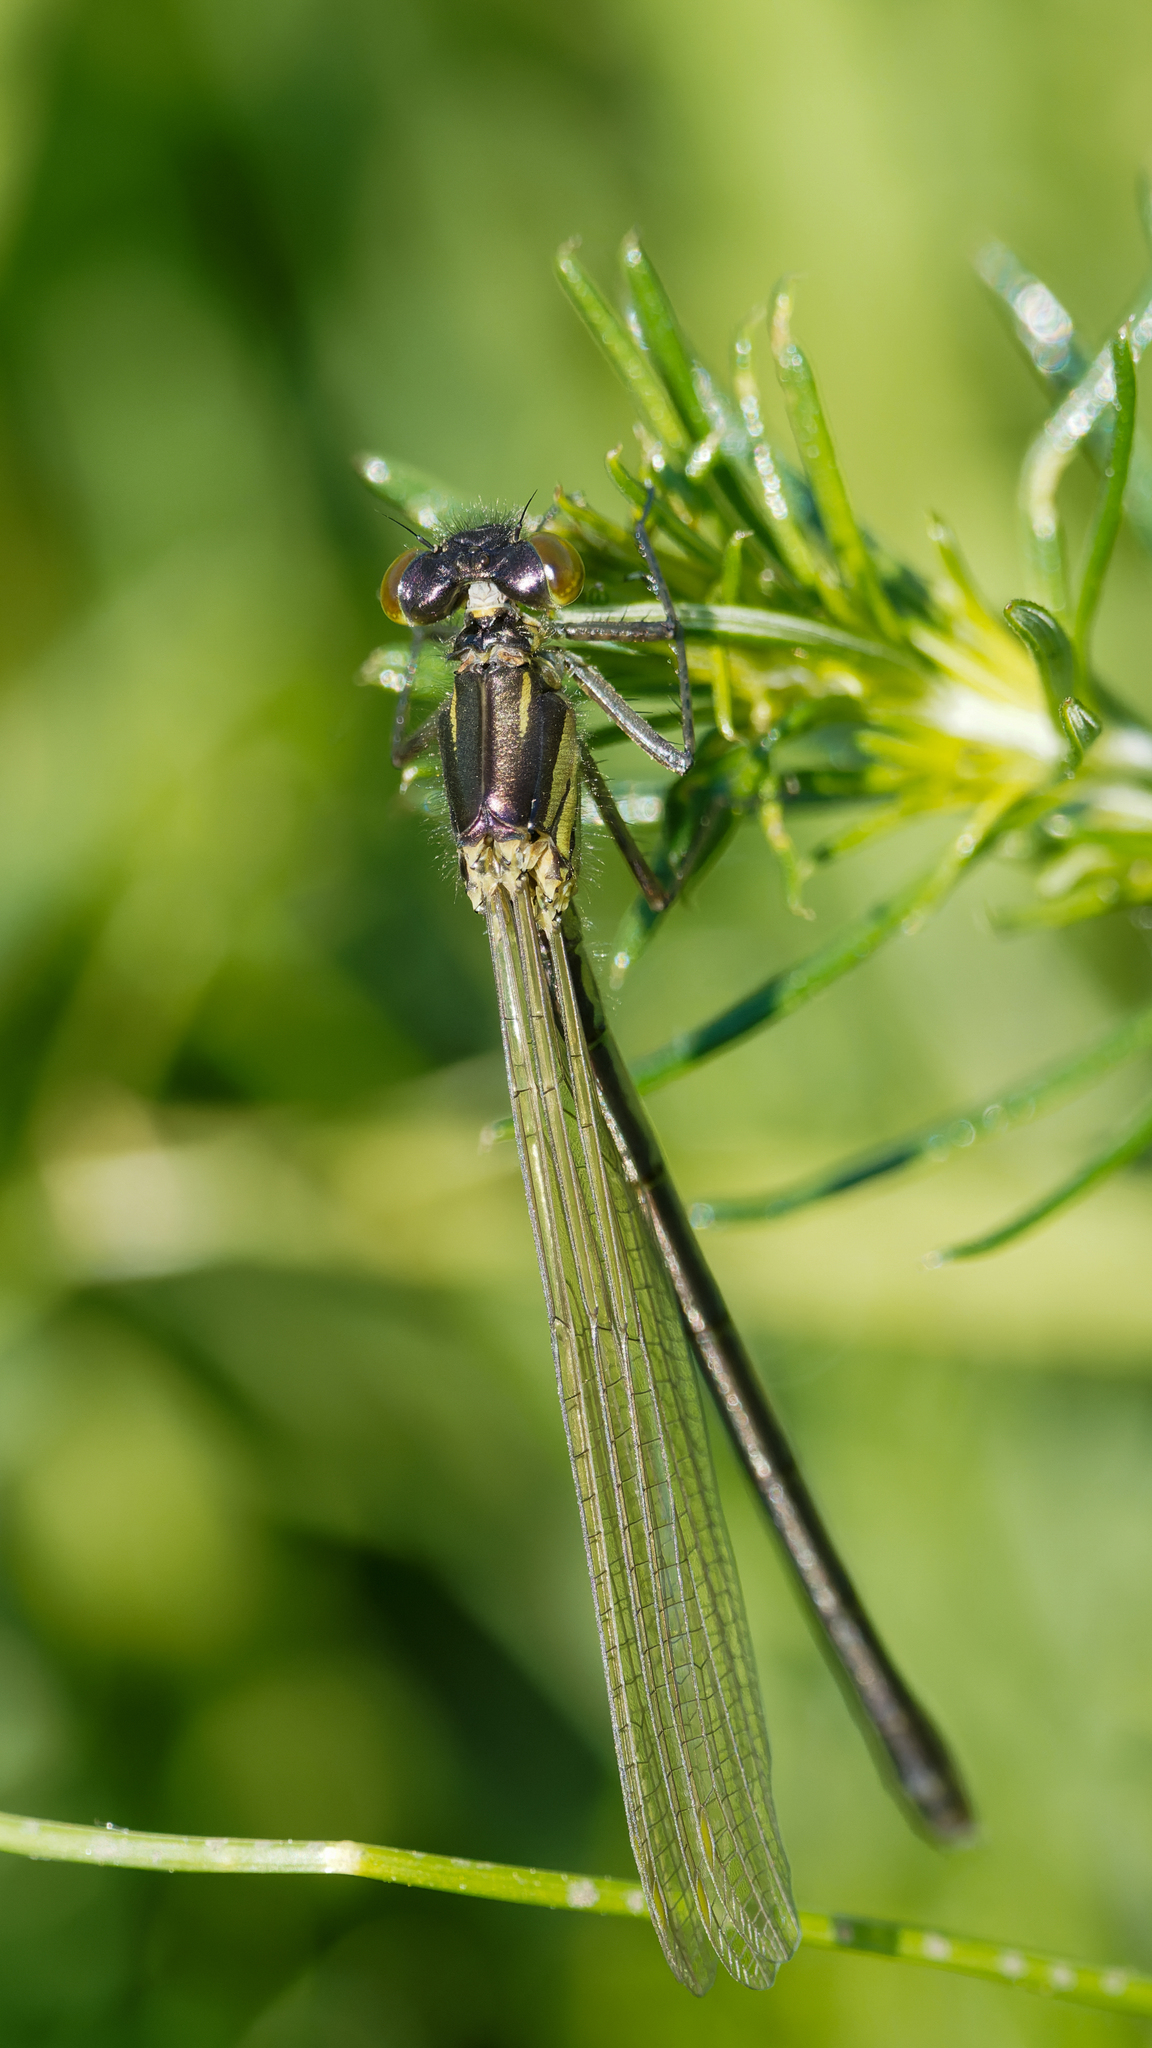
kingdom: Animalia
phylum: Arthropoda
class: Insecta
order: Odonata
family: Coenagrionidae
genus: Erythromma
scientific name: Erythromma najas
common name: Red-eyed damselfly
